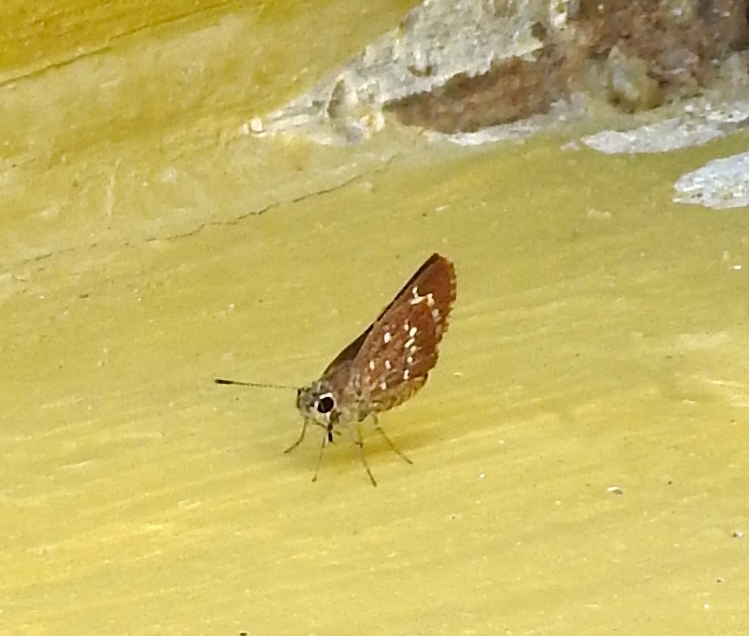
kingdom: Animalia
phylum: Arthropoda
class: Insecta
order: Lepidoptera
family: Hesperiidae
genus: Mastor
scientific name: Mastor tolteca
